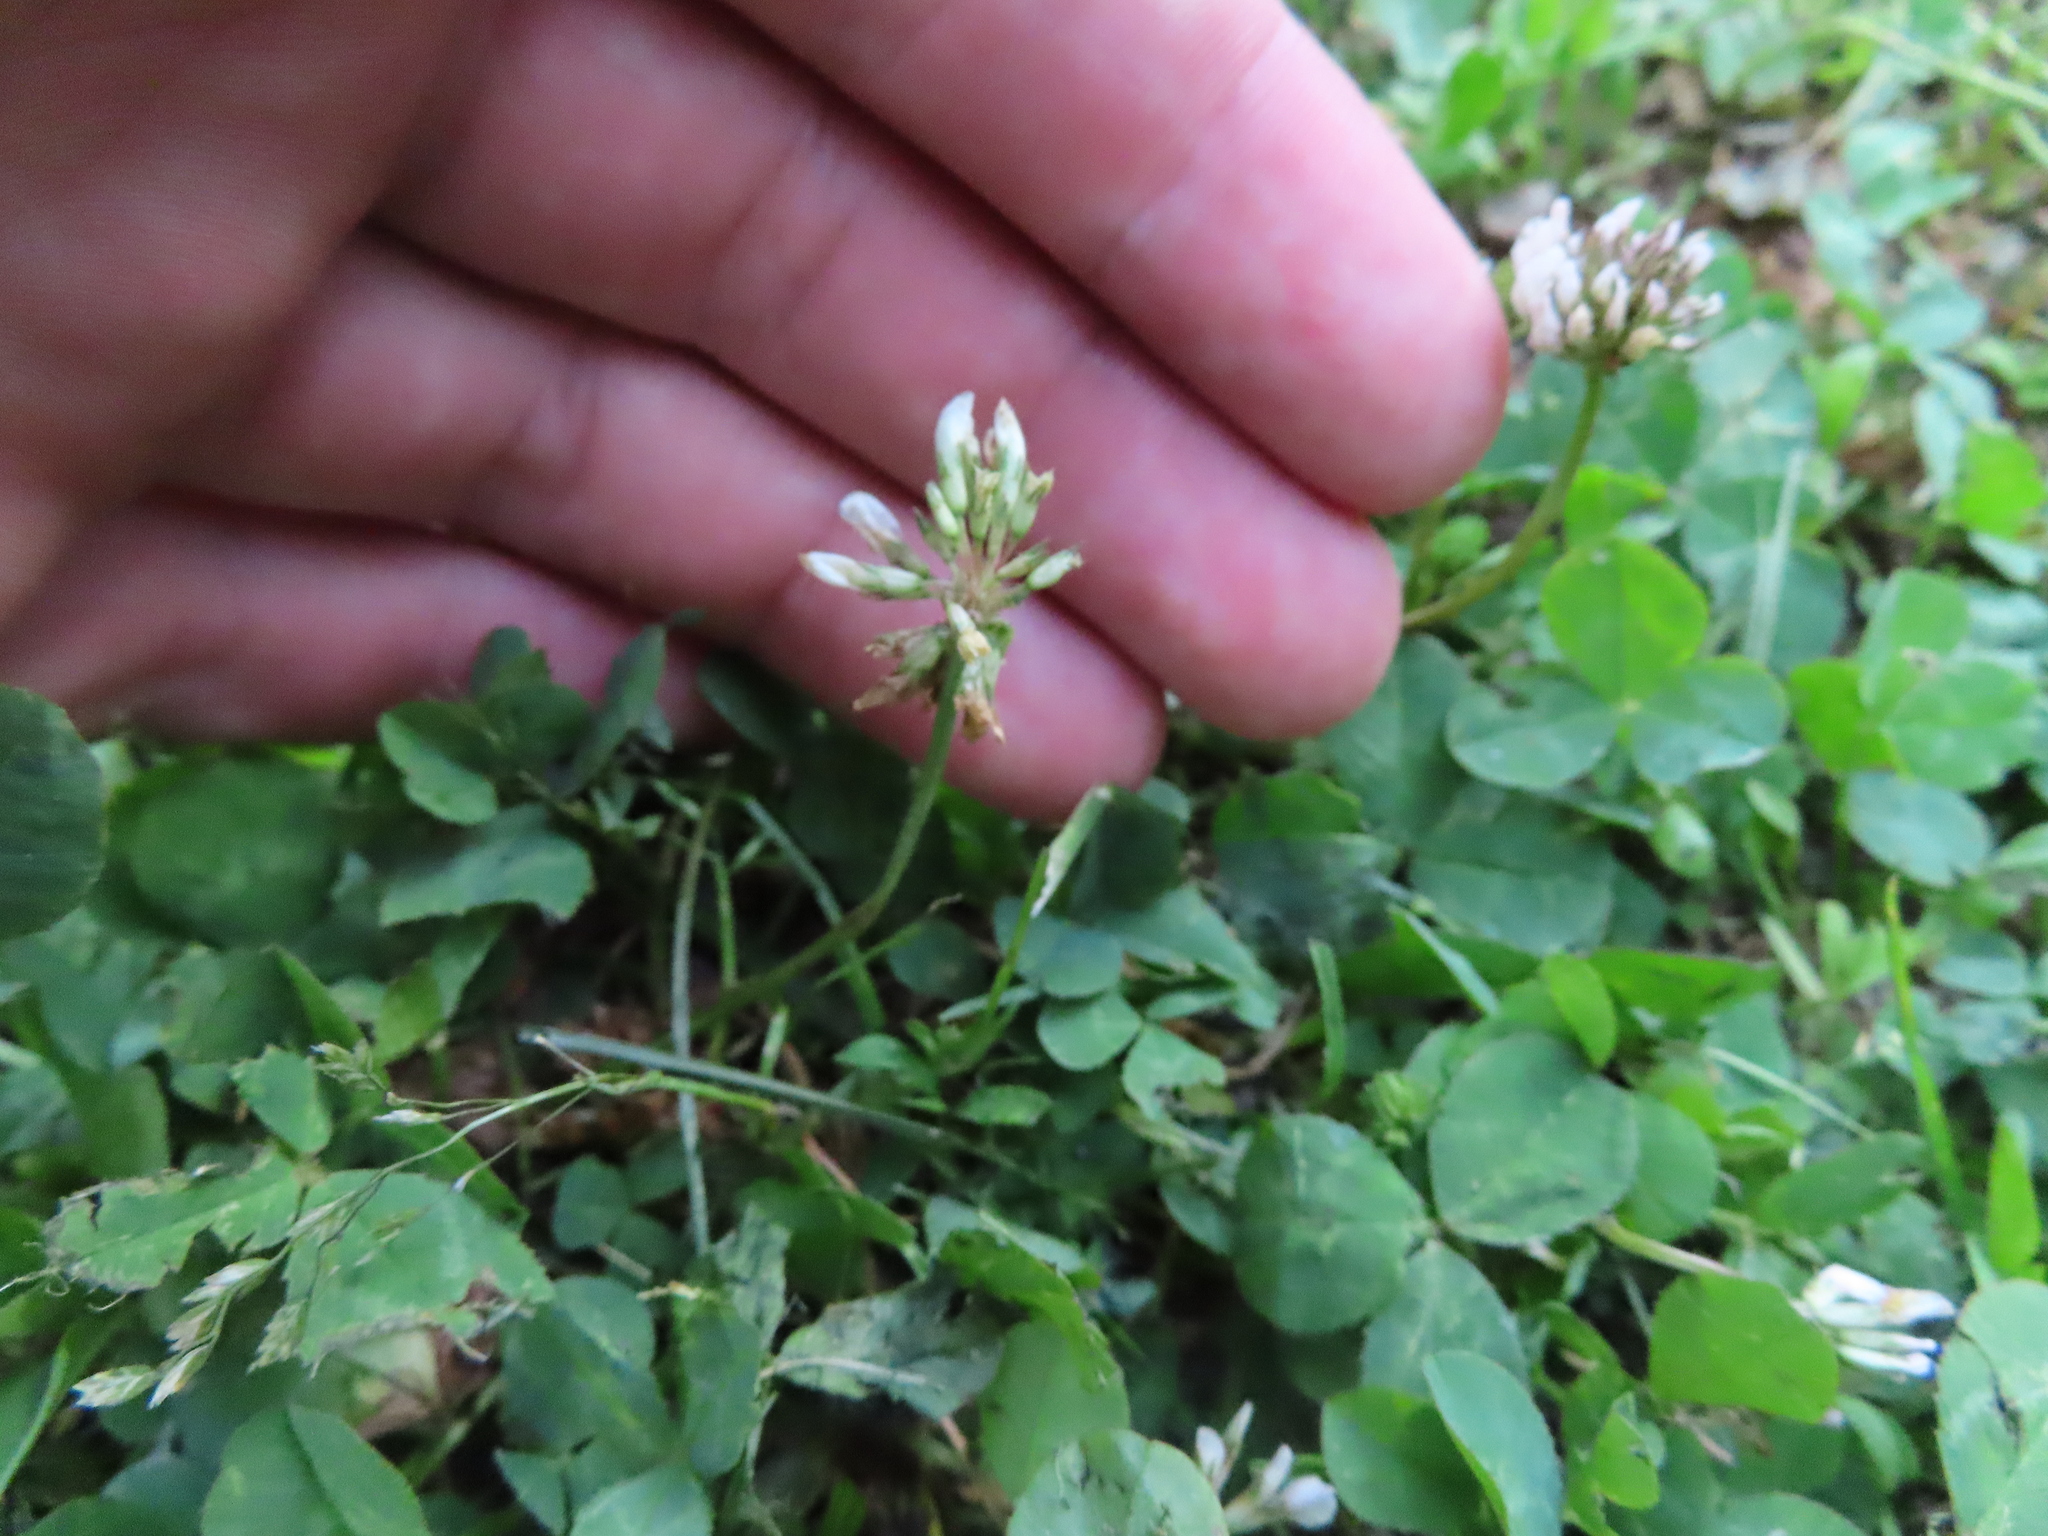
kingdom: Plantae
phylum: Tracheophyta
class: Magnoliopsida
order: Fabales
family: Fabaceae
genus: Trifolium
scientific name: Trifolium repens
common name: White clover
